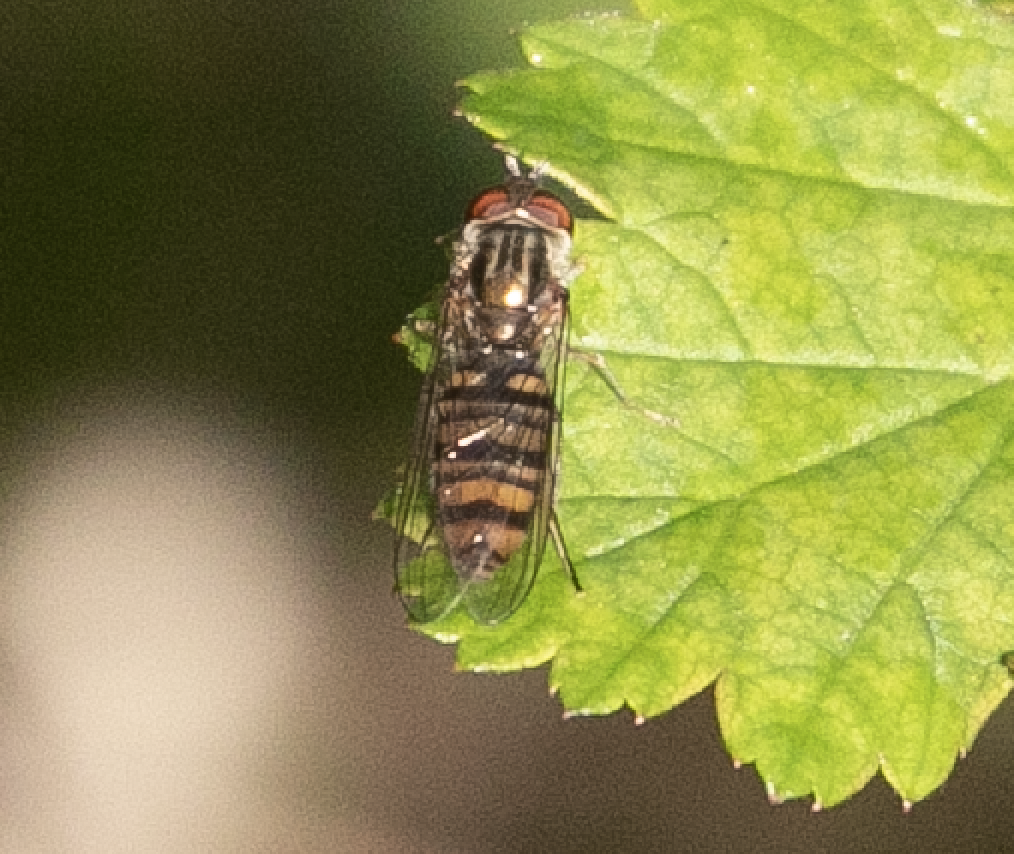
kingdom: Animalia
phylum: Arthropoda
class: Insecta
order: Diptera
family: Syrphidae
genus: Episyrphus
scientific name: Episyrphus balteatus
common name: Marmalade hoverfly
